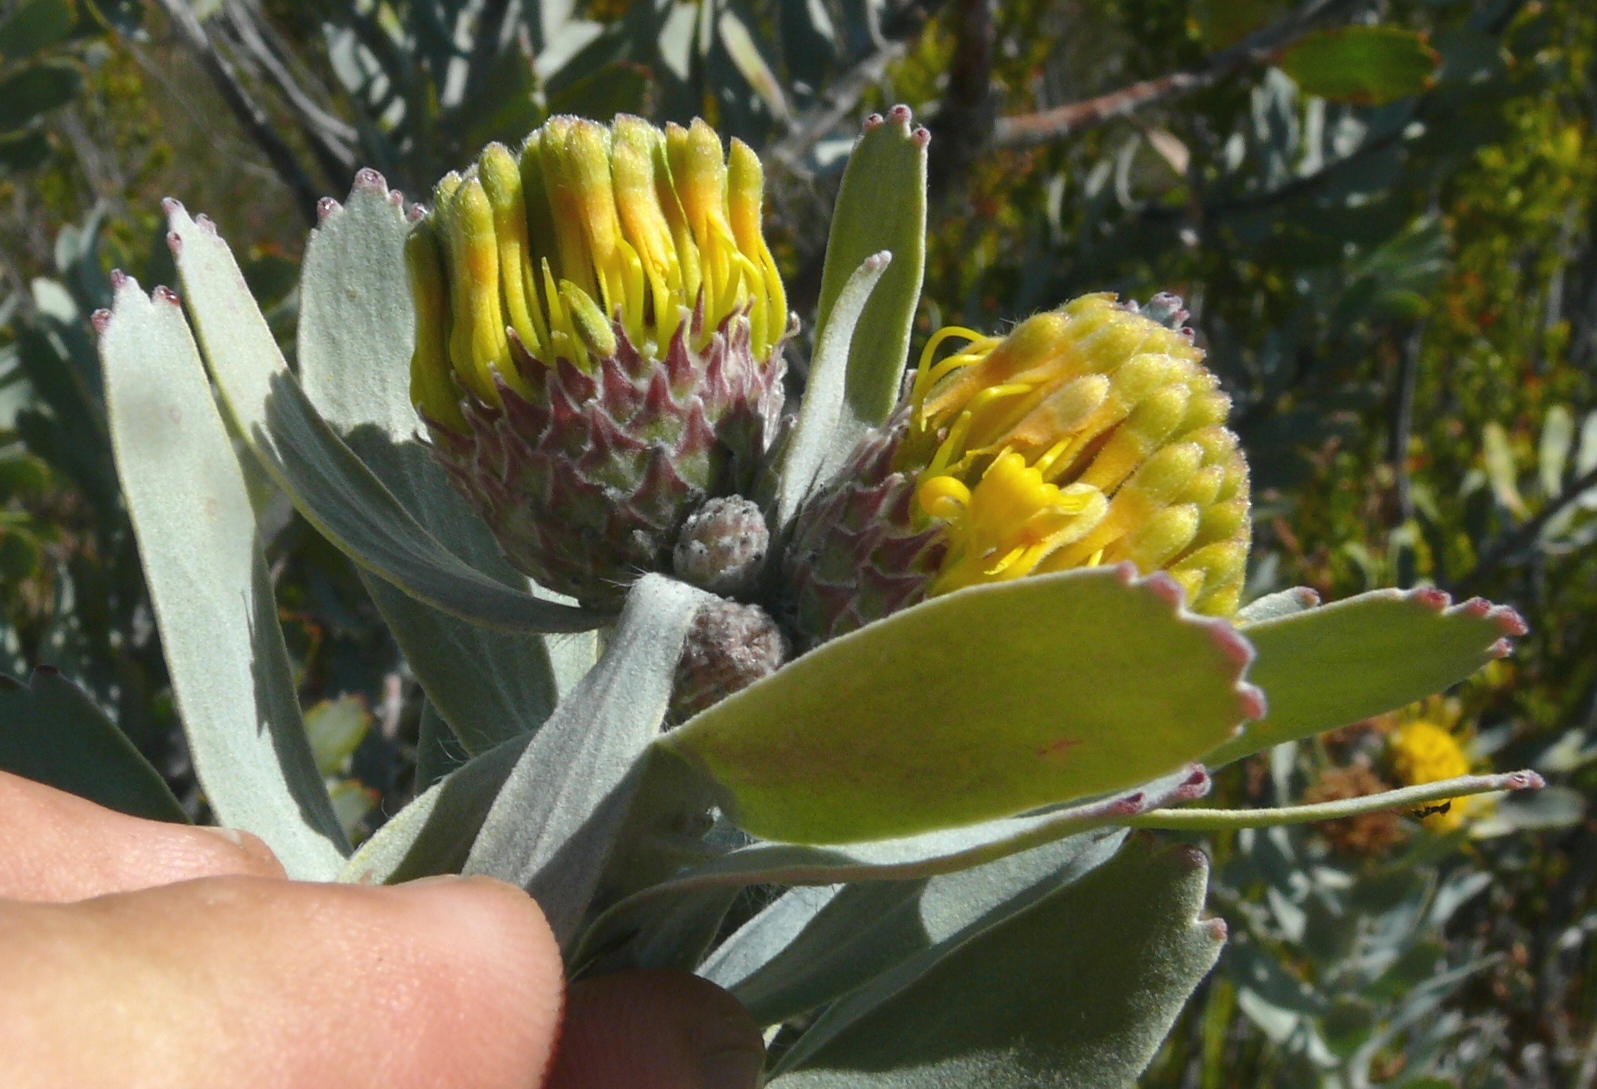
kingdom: Plantae
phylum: Tracheophyta
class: Magnoliopsida
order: Proteales
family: Proteaceae
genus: Leucospermum
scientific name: Leucospermum rodolentum
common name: Pincushion
